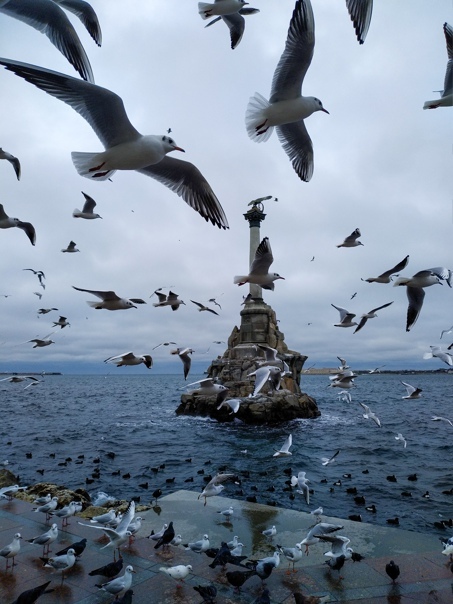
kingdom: Animalia
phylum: Chordata
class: Aves
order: Charadriiformes
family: Laridae
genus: Chroicocephalus
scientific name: Chroicocephalus ridibundus
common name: Black-headed gull
